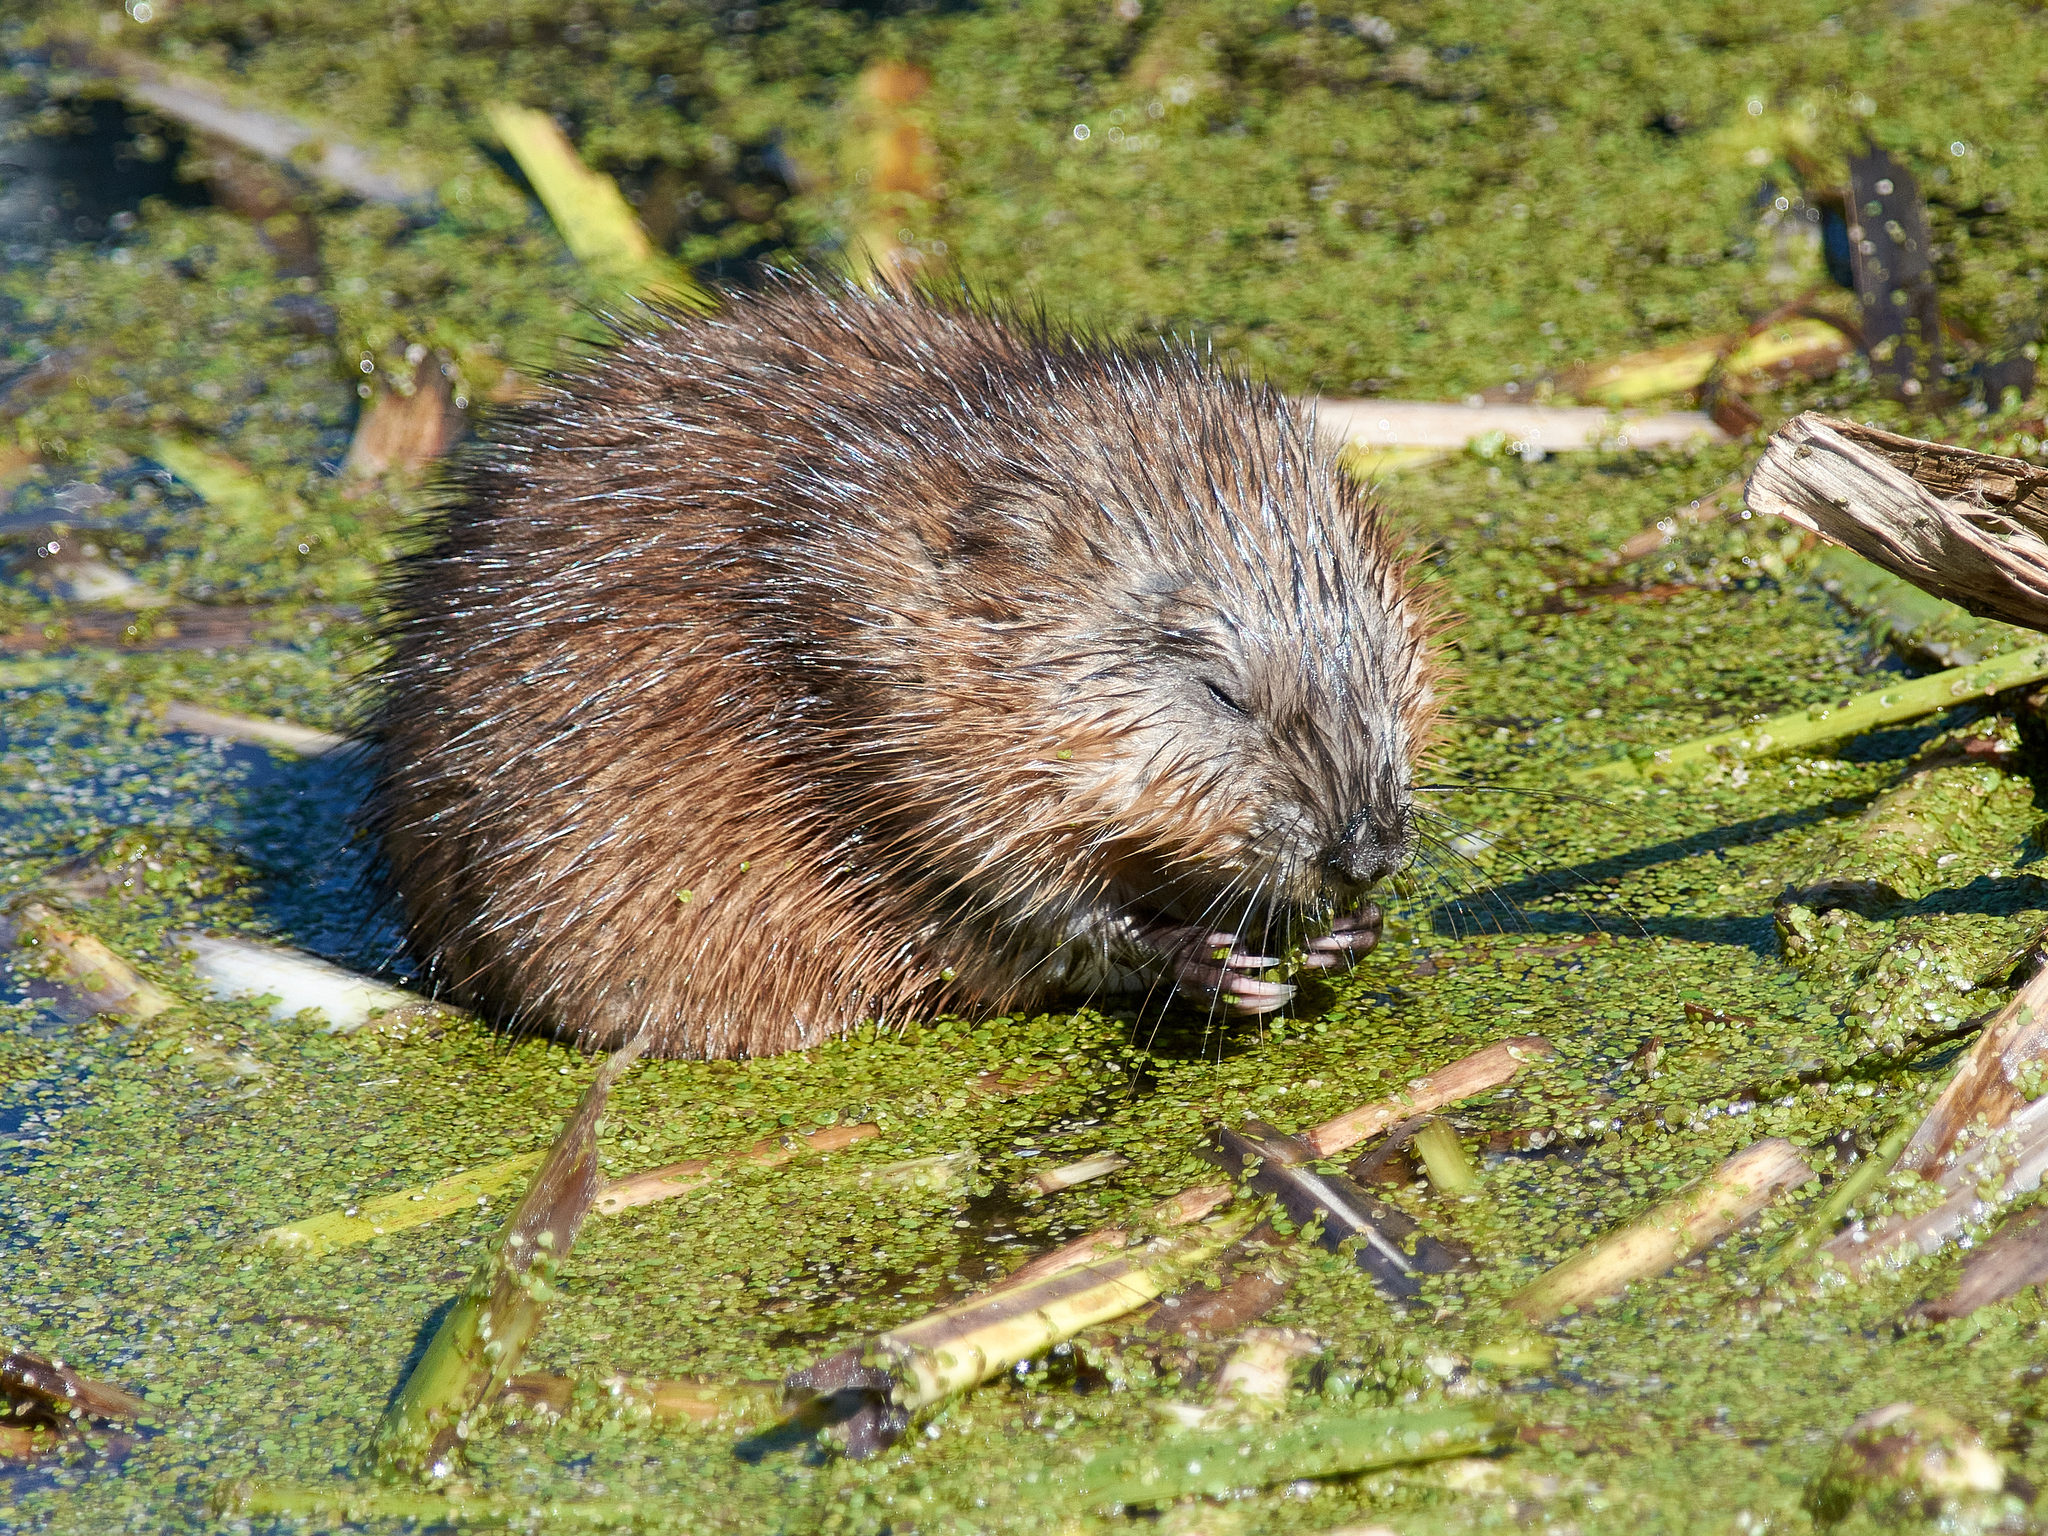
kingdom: Animalia
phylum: Chordata
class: Mammalia
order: Rodentia
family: Cricetidae
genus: Ondatra
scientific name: Ondatra zibethicus
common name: Muskrat
